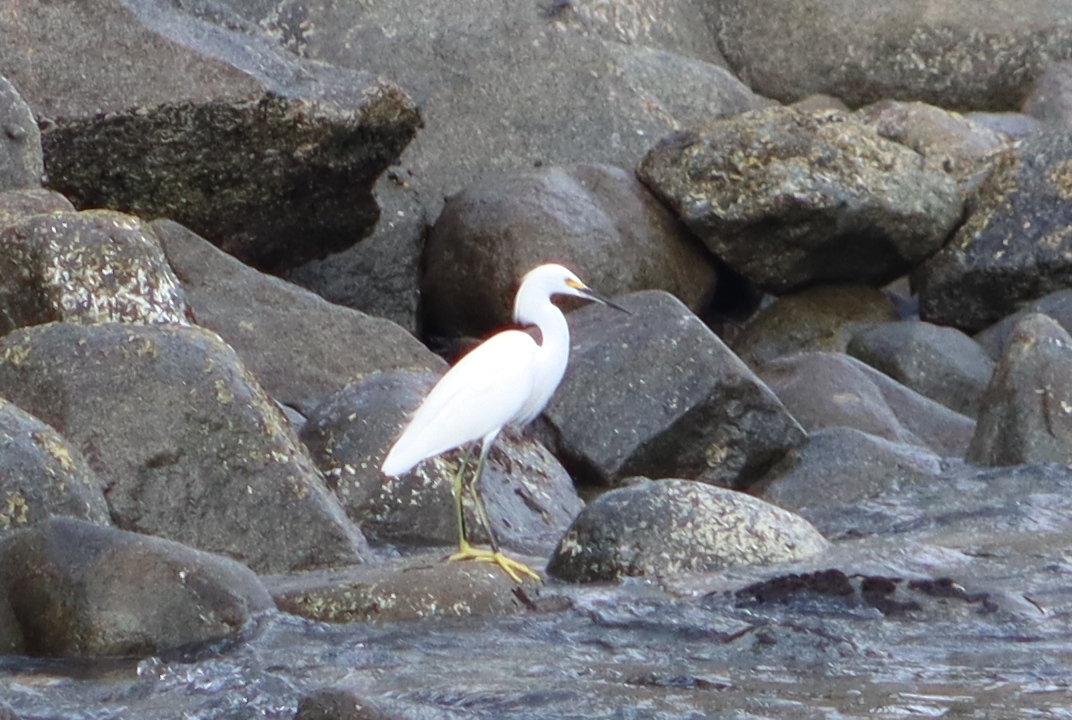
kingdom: Animalia
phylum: Chordata
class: Aves
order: Pelecaniformes
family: Ardeidae
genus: Egretta
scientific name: Egretta thula
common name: Snowy egret
